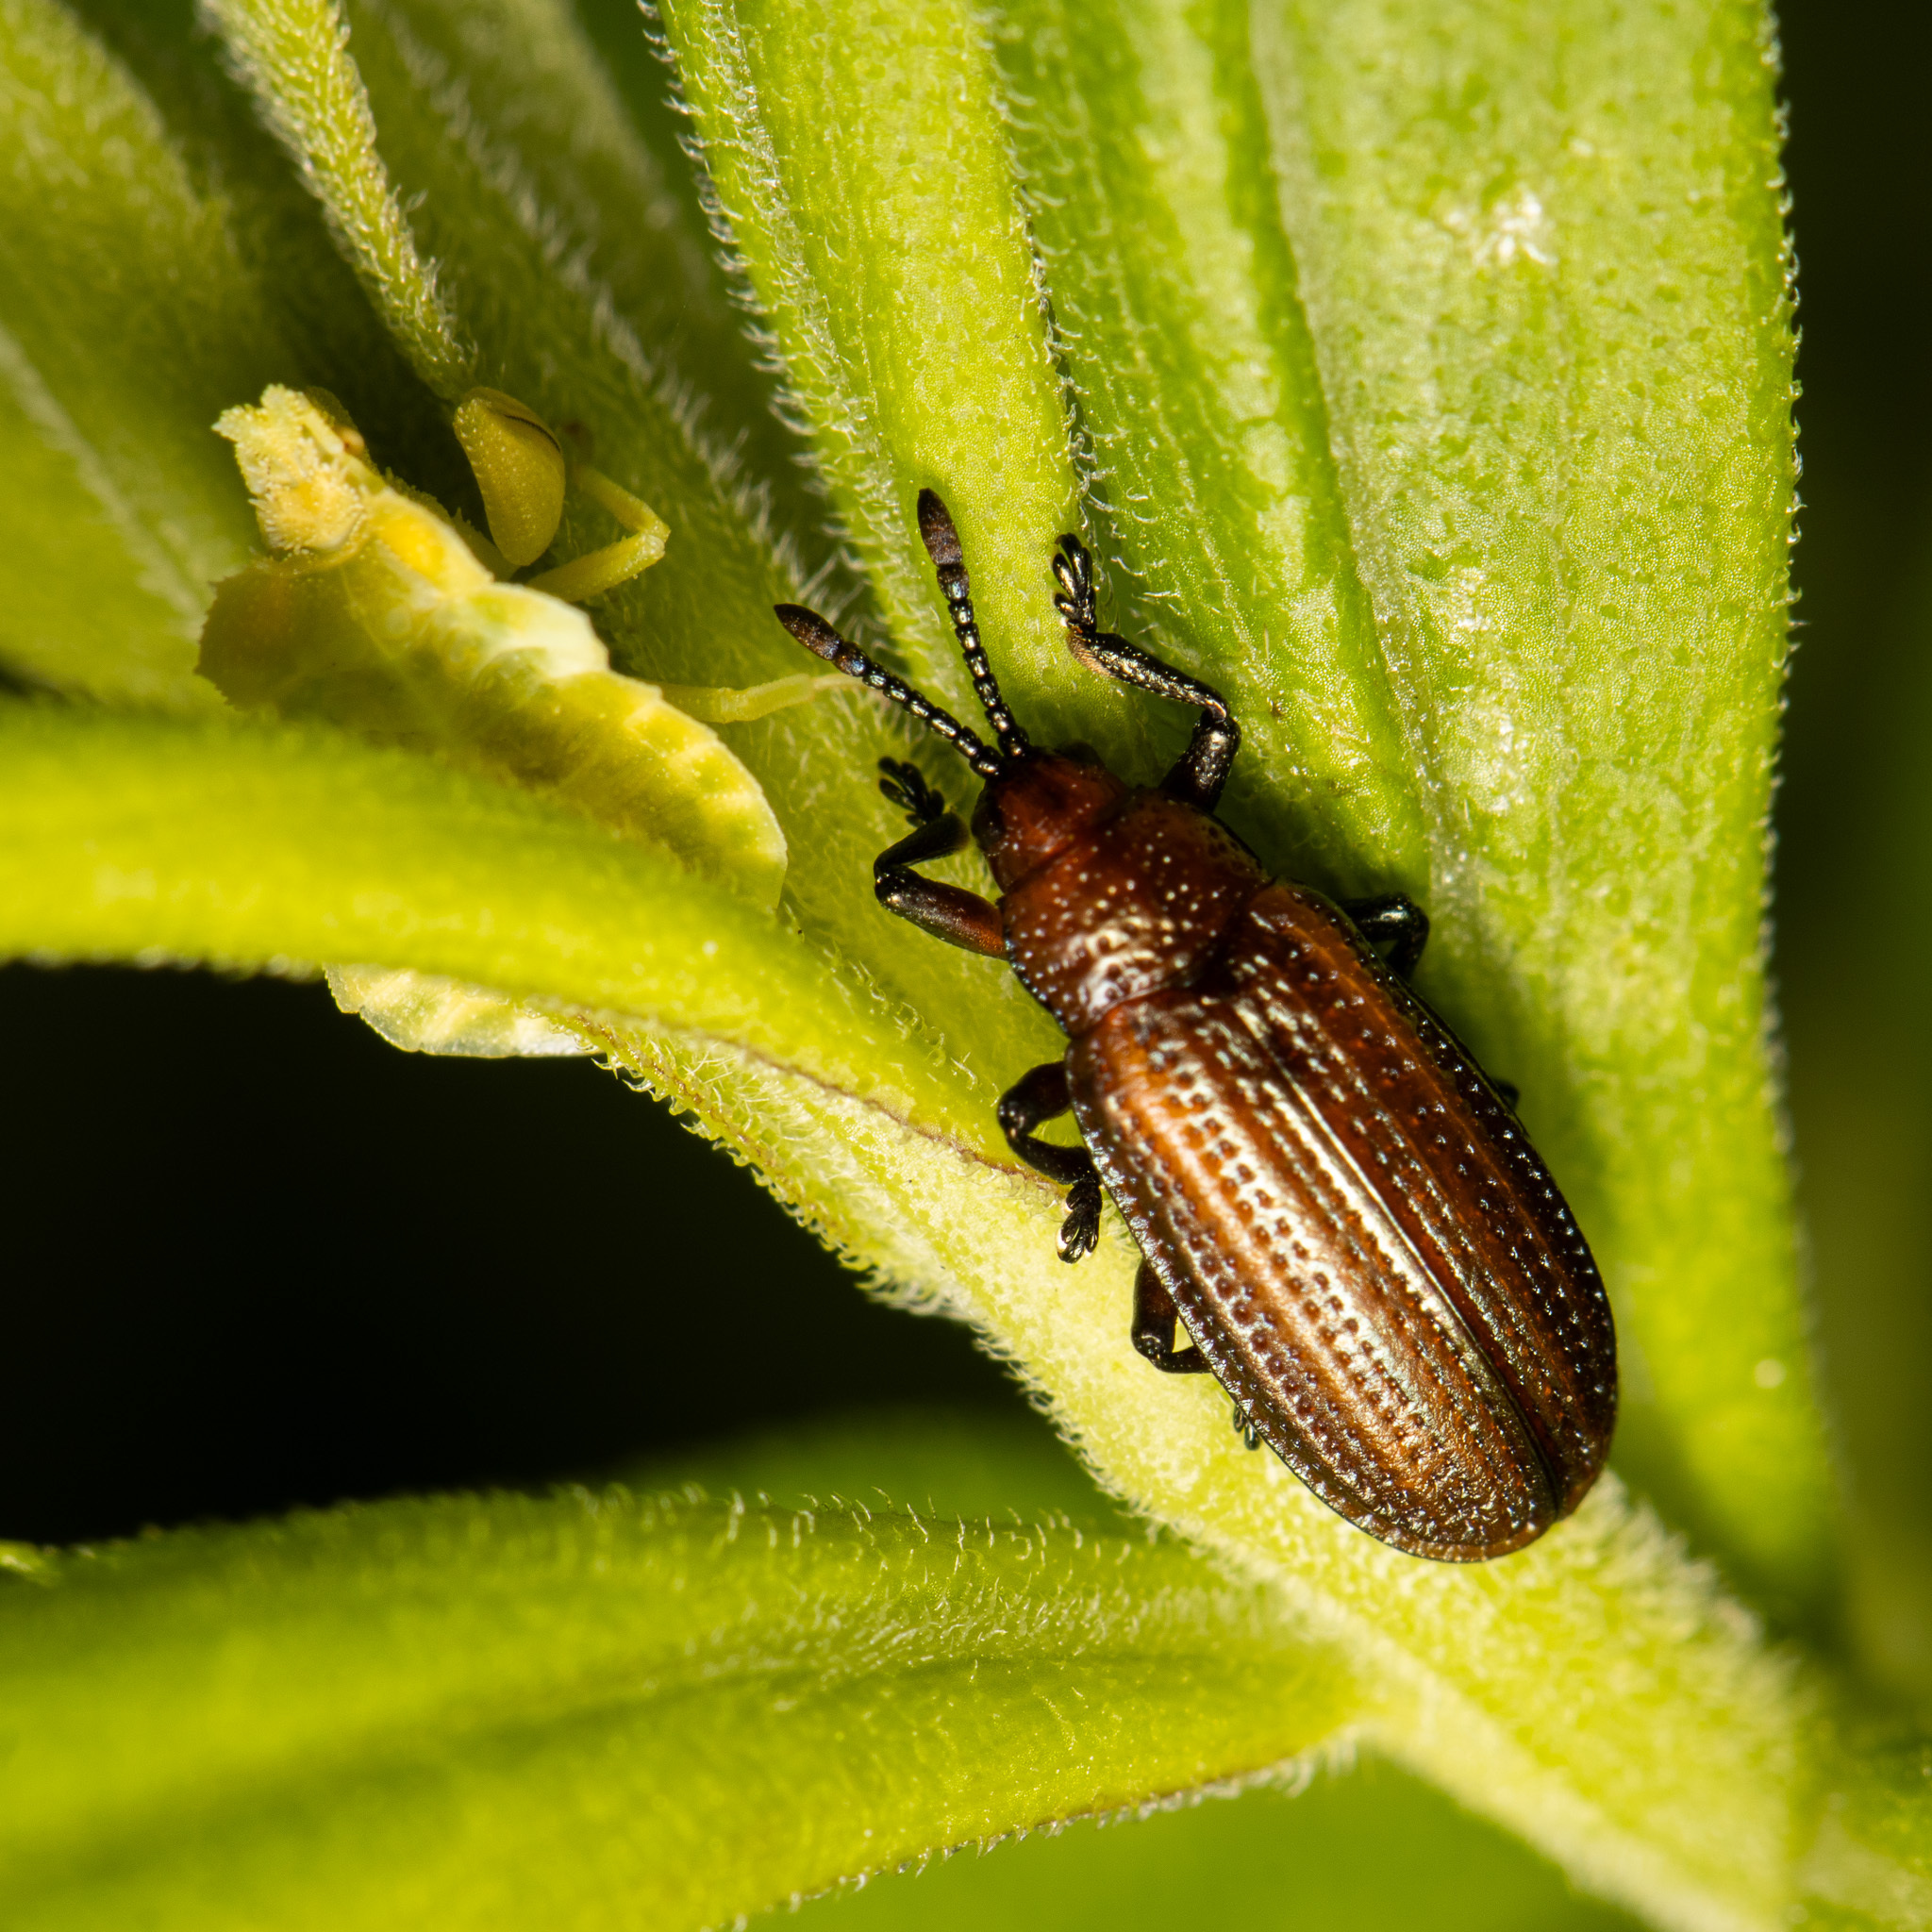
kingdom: Animalia
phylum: Arthropoda
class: Insecta
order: Coleoptera
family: Chrysomelidae
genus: Microrhopala
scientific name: Microrhopala vittata
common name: Goldenrod leaf miner beetle
